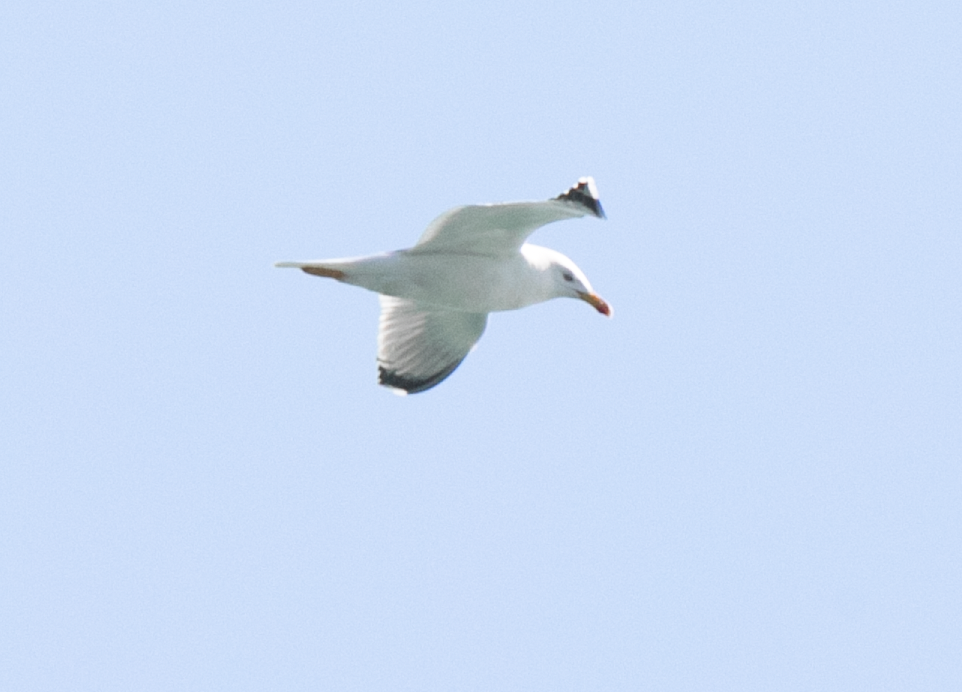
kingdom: Animalia
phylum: Chordata
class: Aves
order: Charadriiformes
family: Laridae
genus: Larus
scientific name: Larus michahellis
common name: Yellow-legged gull
